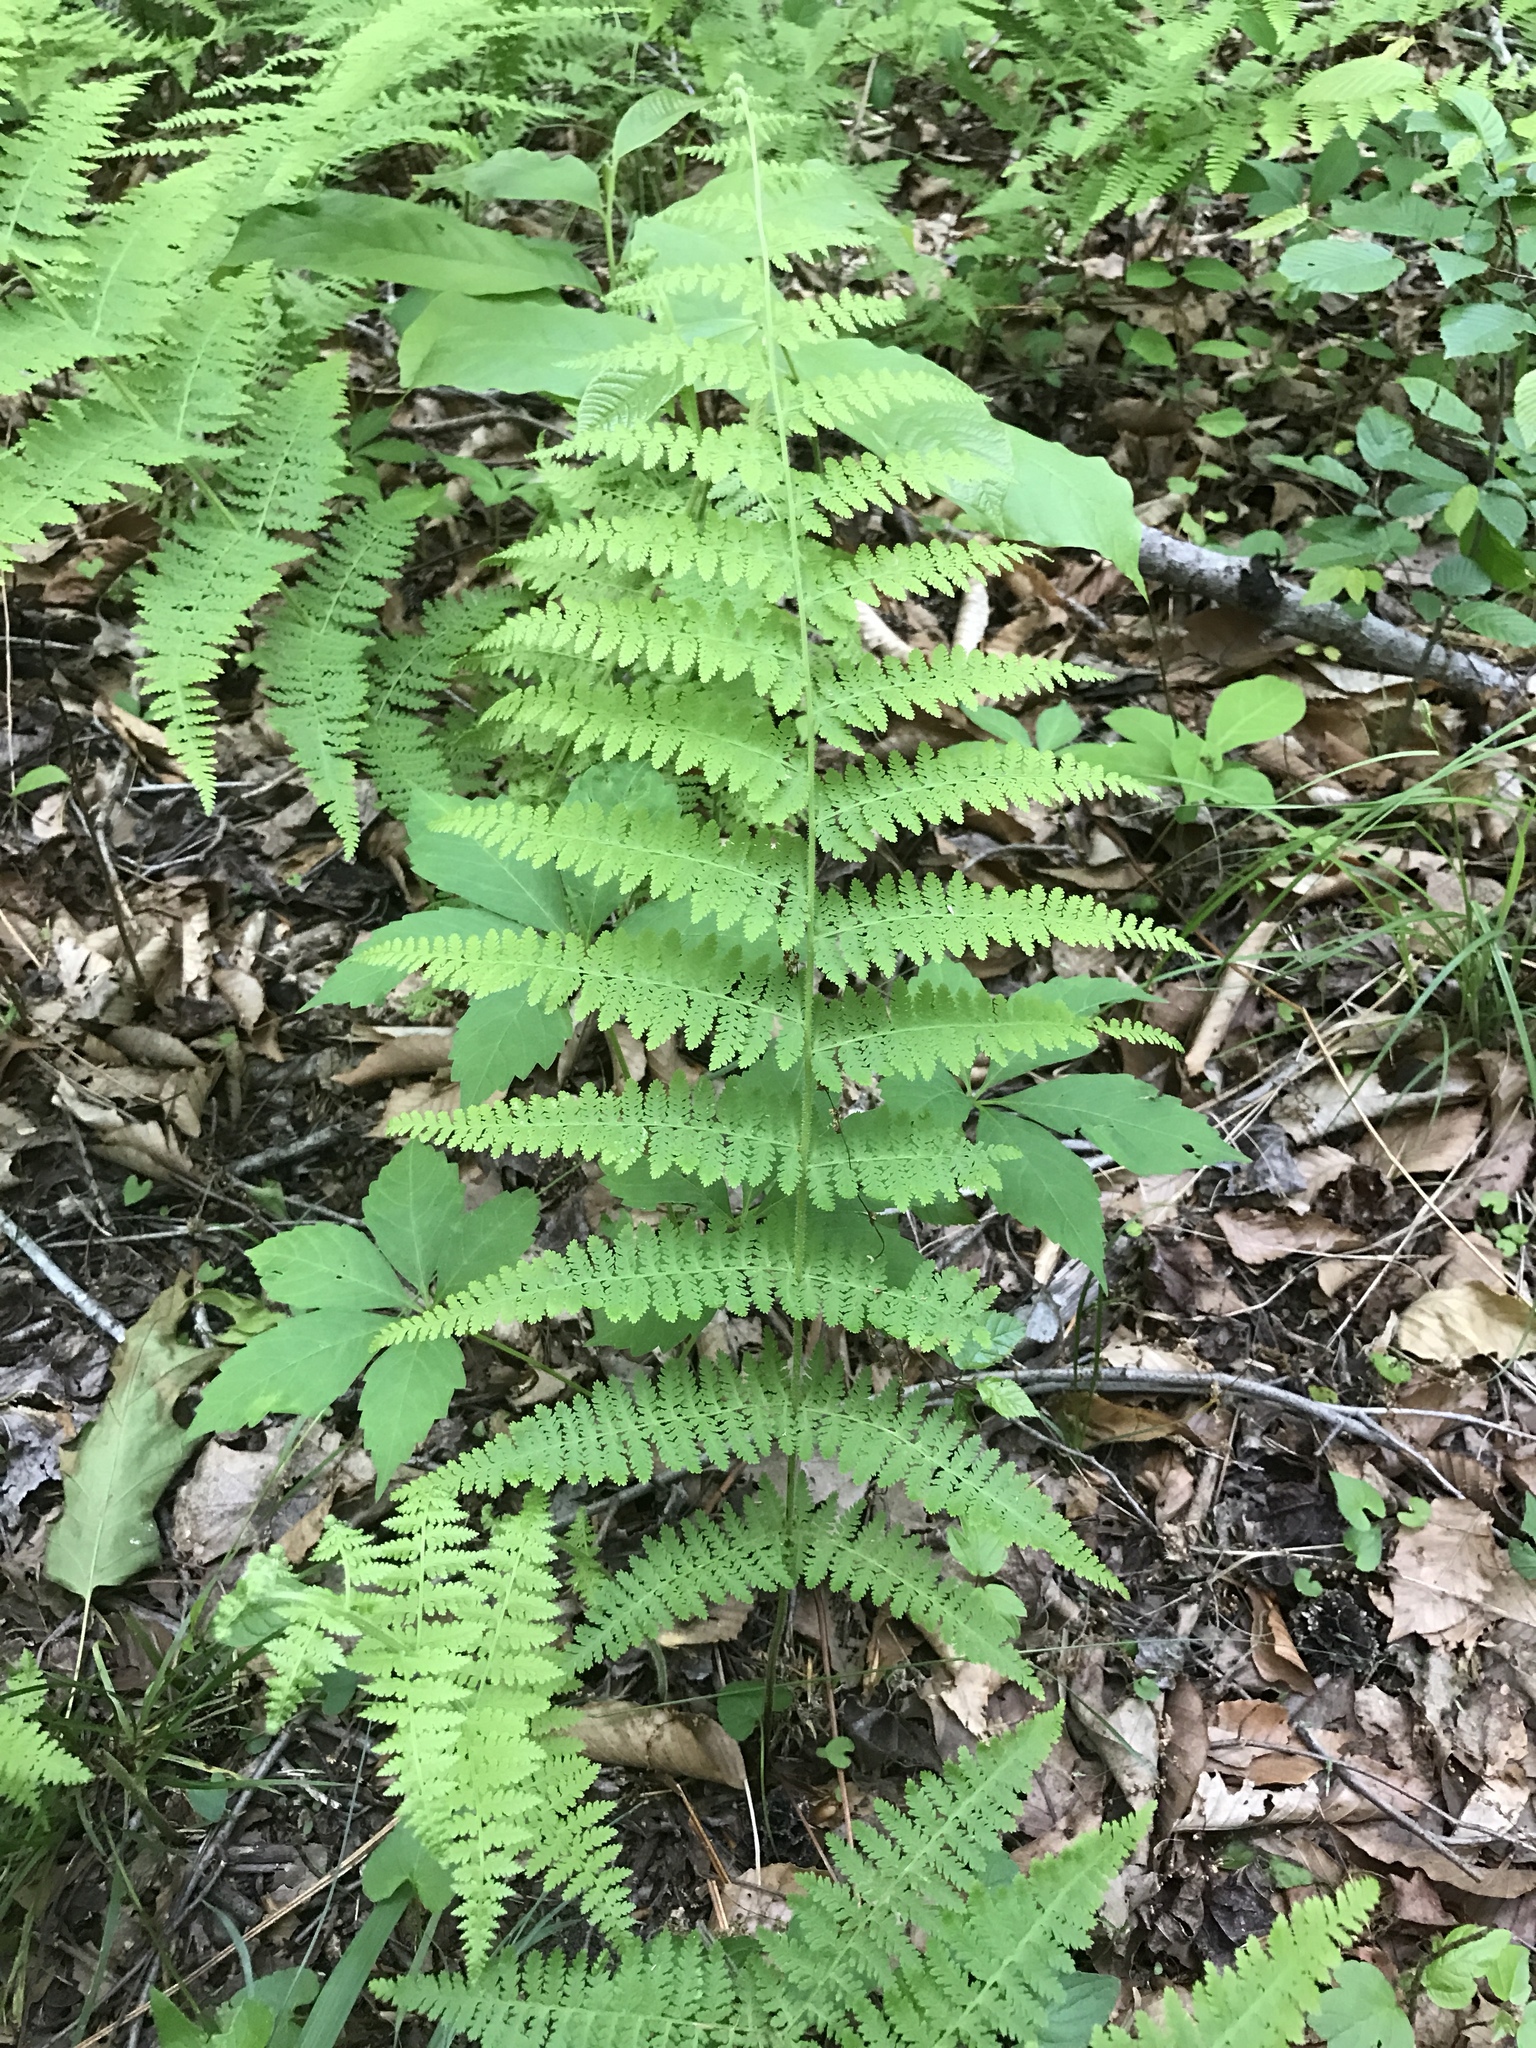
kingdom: Plantae
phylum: Tracheophyta
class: Polypodiopsida
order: Polypodiales
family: Dennstaedtiaceae
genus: Sitobolium
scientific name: Sitobolium punctilobum
